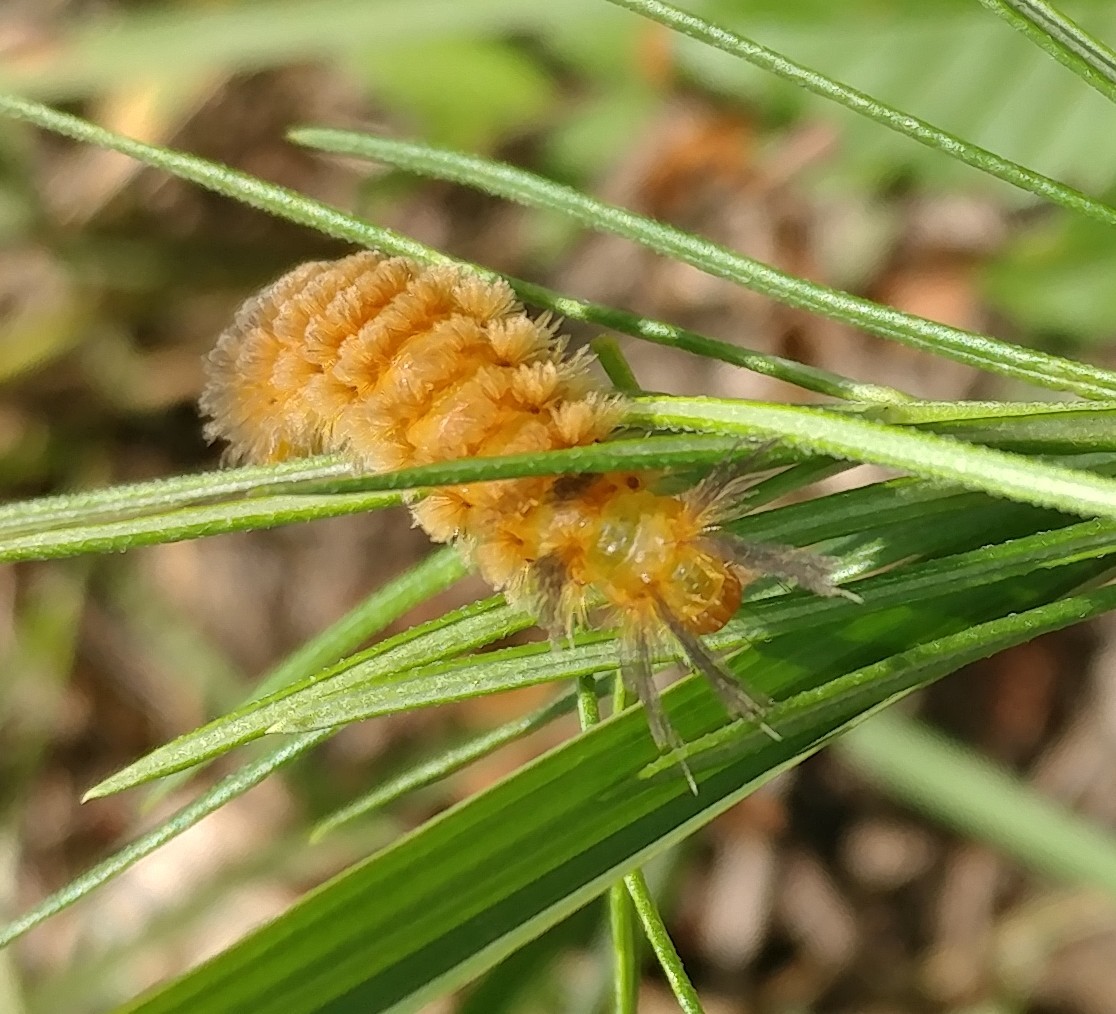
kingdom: Animalia
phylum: Arthropoda
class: Insecta
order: Lepidoptera
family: Erebidae
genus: Cycnia
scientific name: Cycnia collaris
